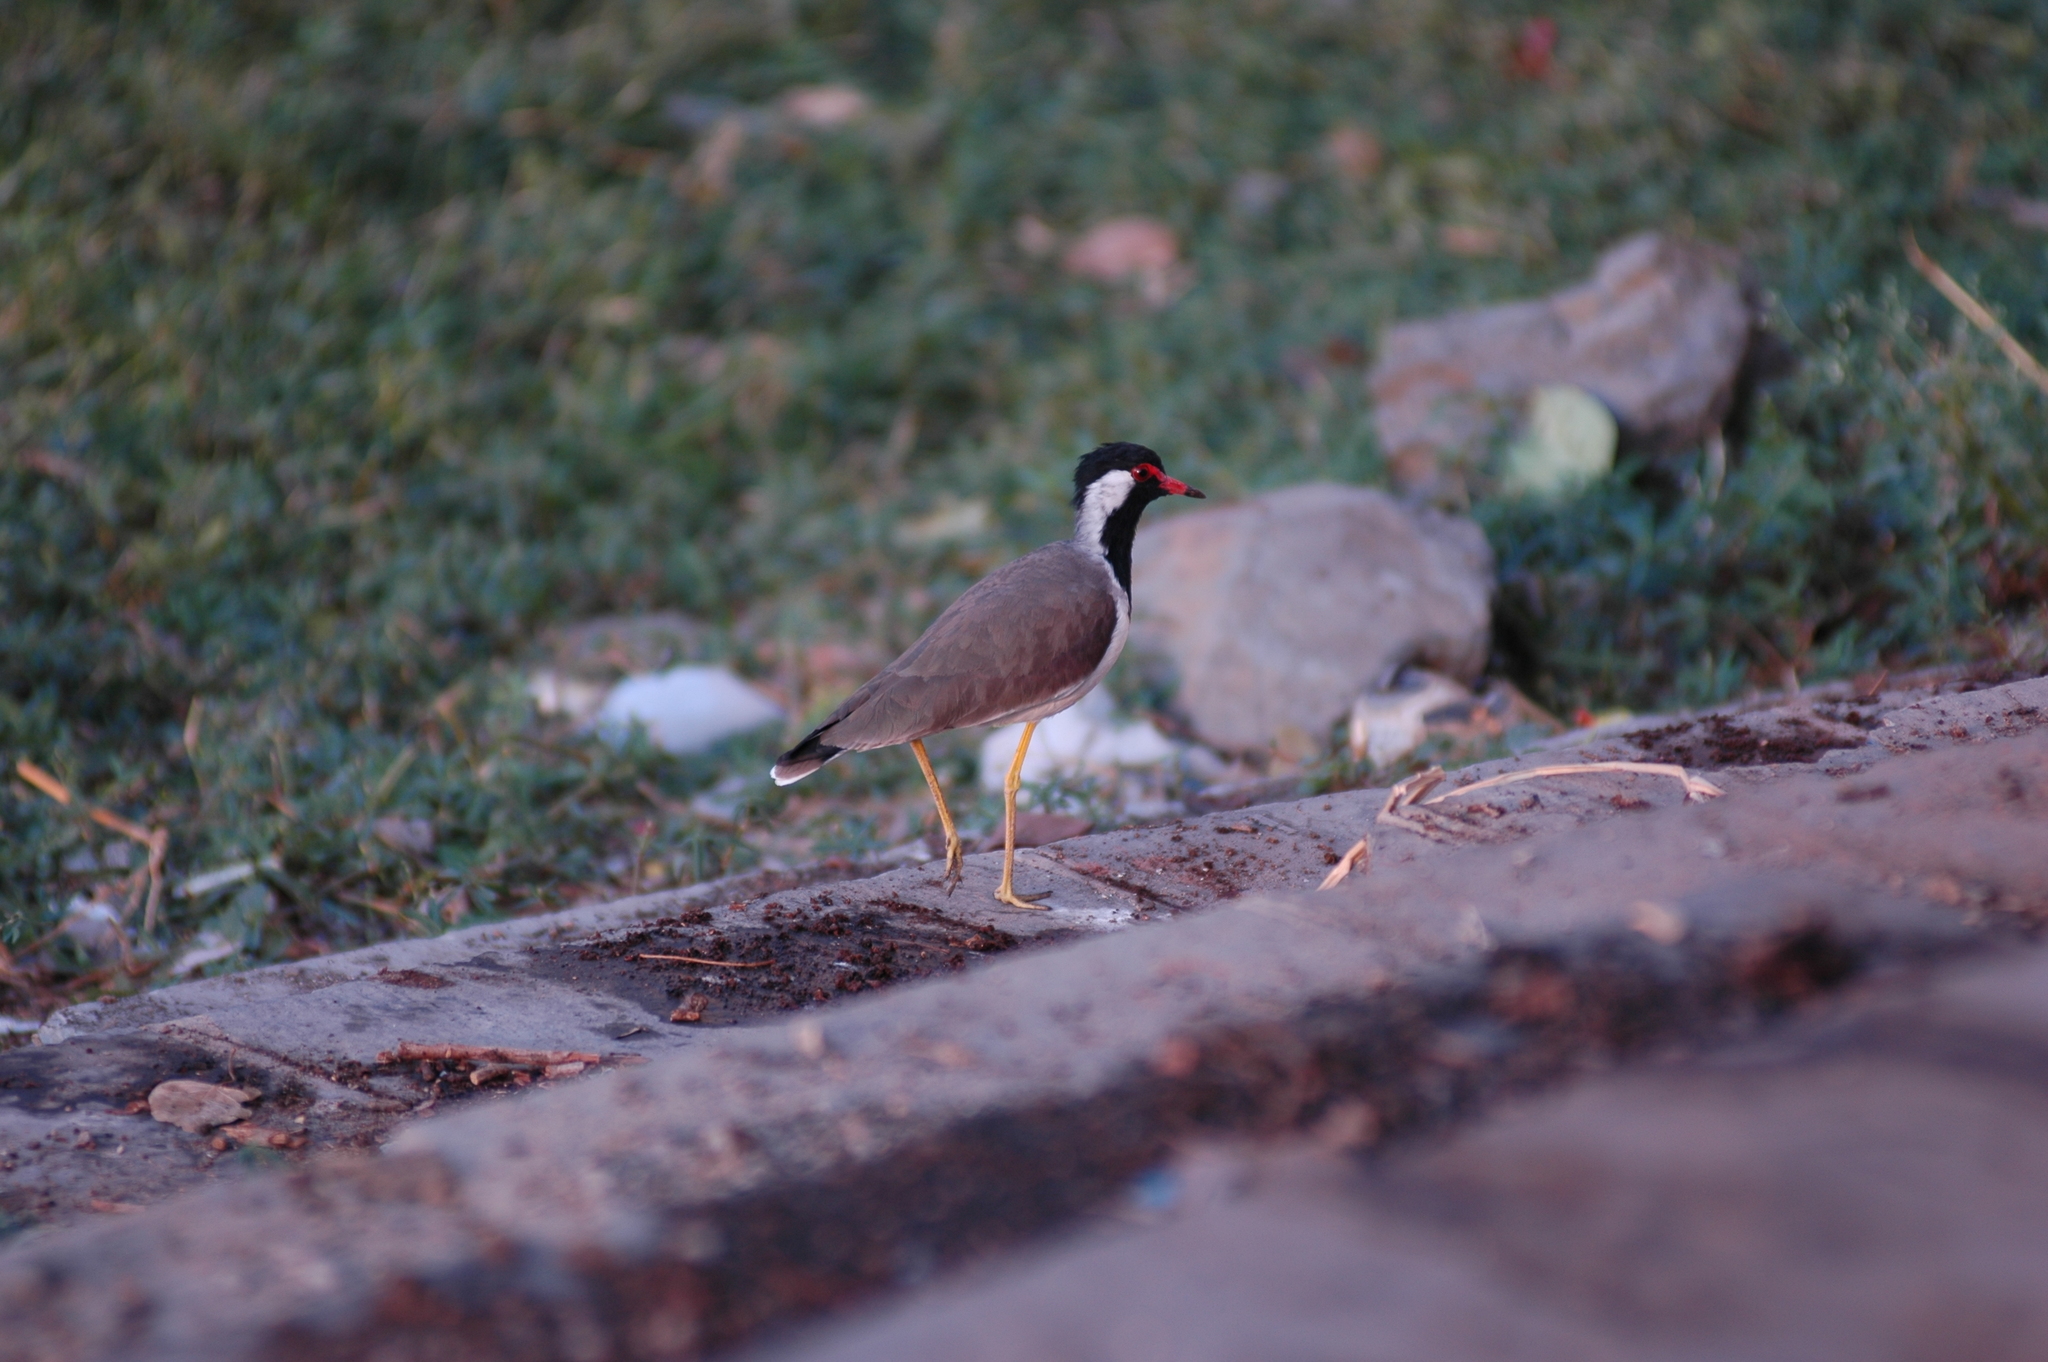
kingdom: Animalia
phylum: Chordata
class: Aves
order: Charadriiformes
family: Charadriidae
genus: Vanellus
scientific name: Vanellus indicus
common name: Red-wattled lapwing
